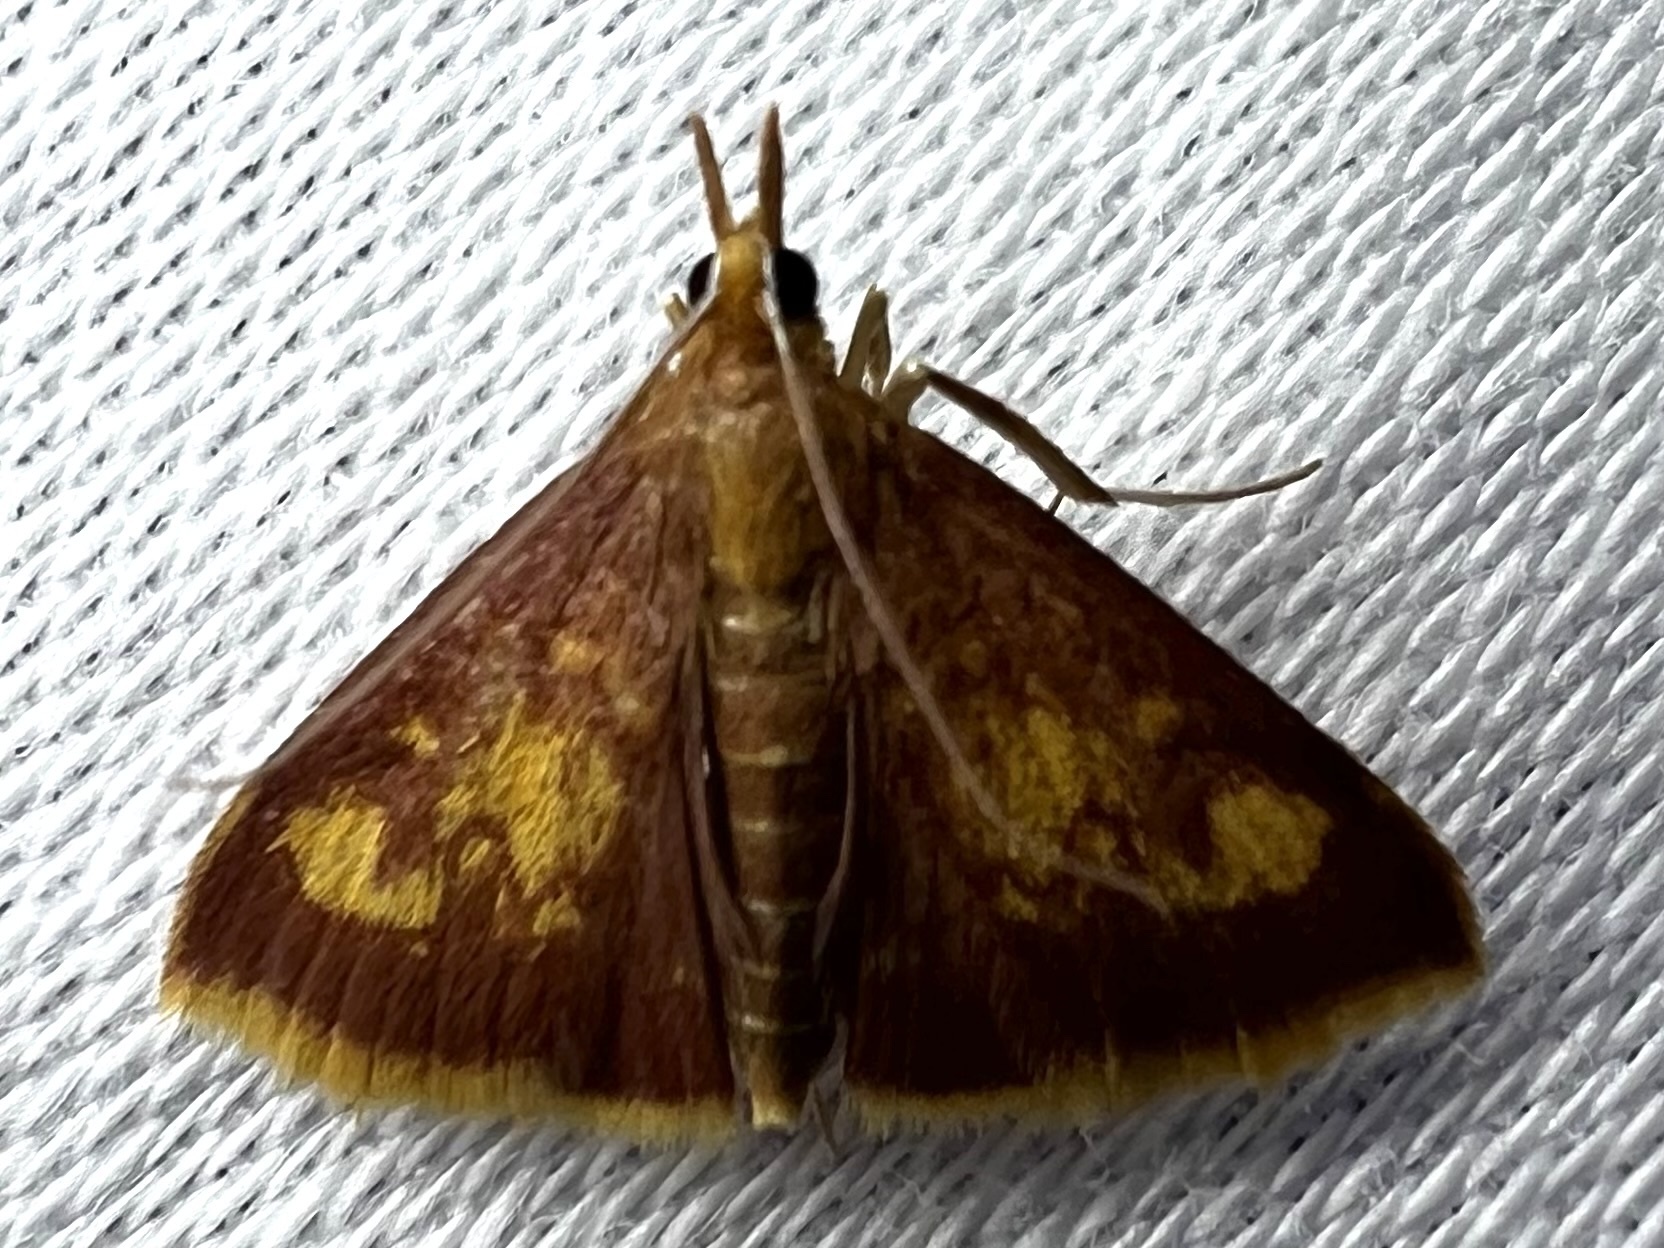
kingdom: Animalia
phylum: Arthropoda
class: Insecta
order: Lepidoptera
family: Crambidae
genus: Pyrausta
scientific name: Pyrausta acrionalis
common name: Mint-loving pyrausta moth
